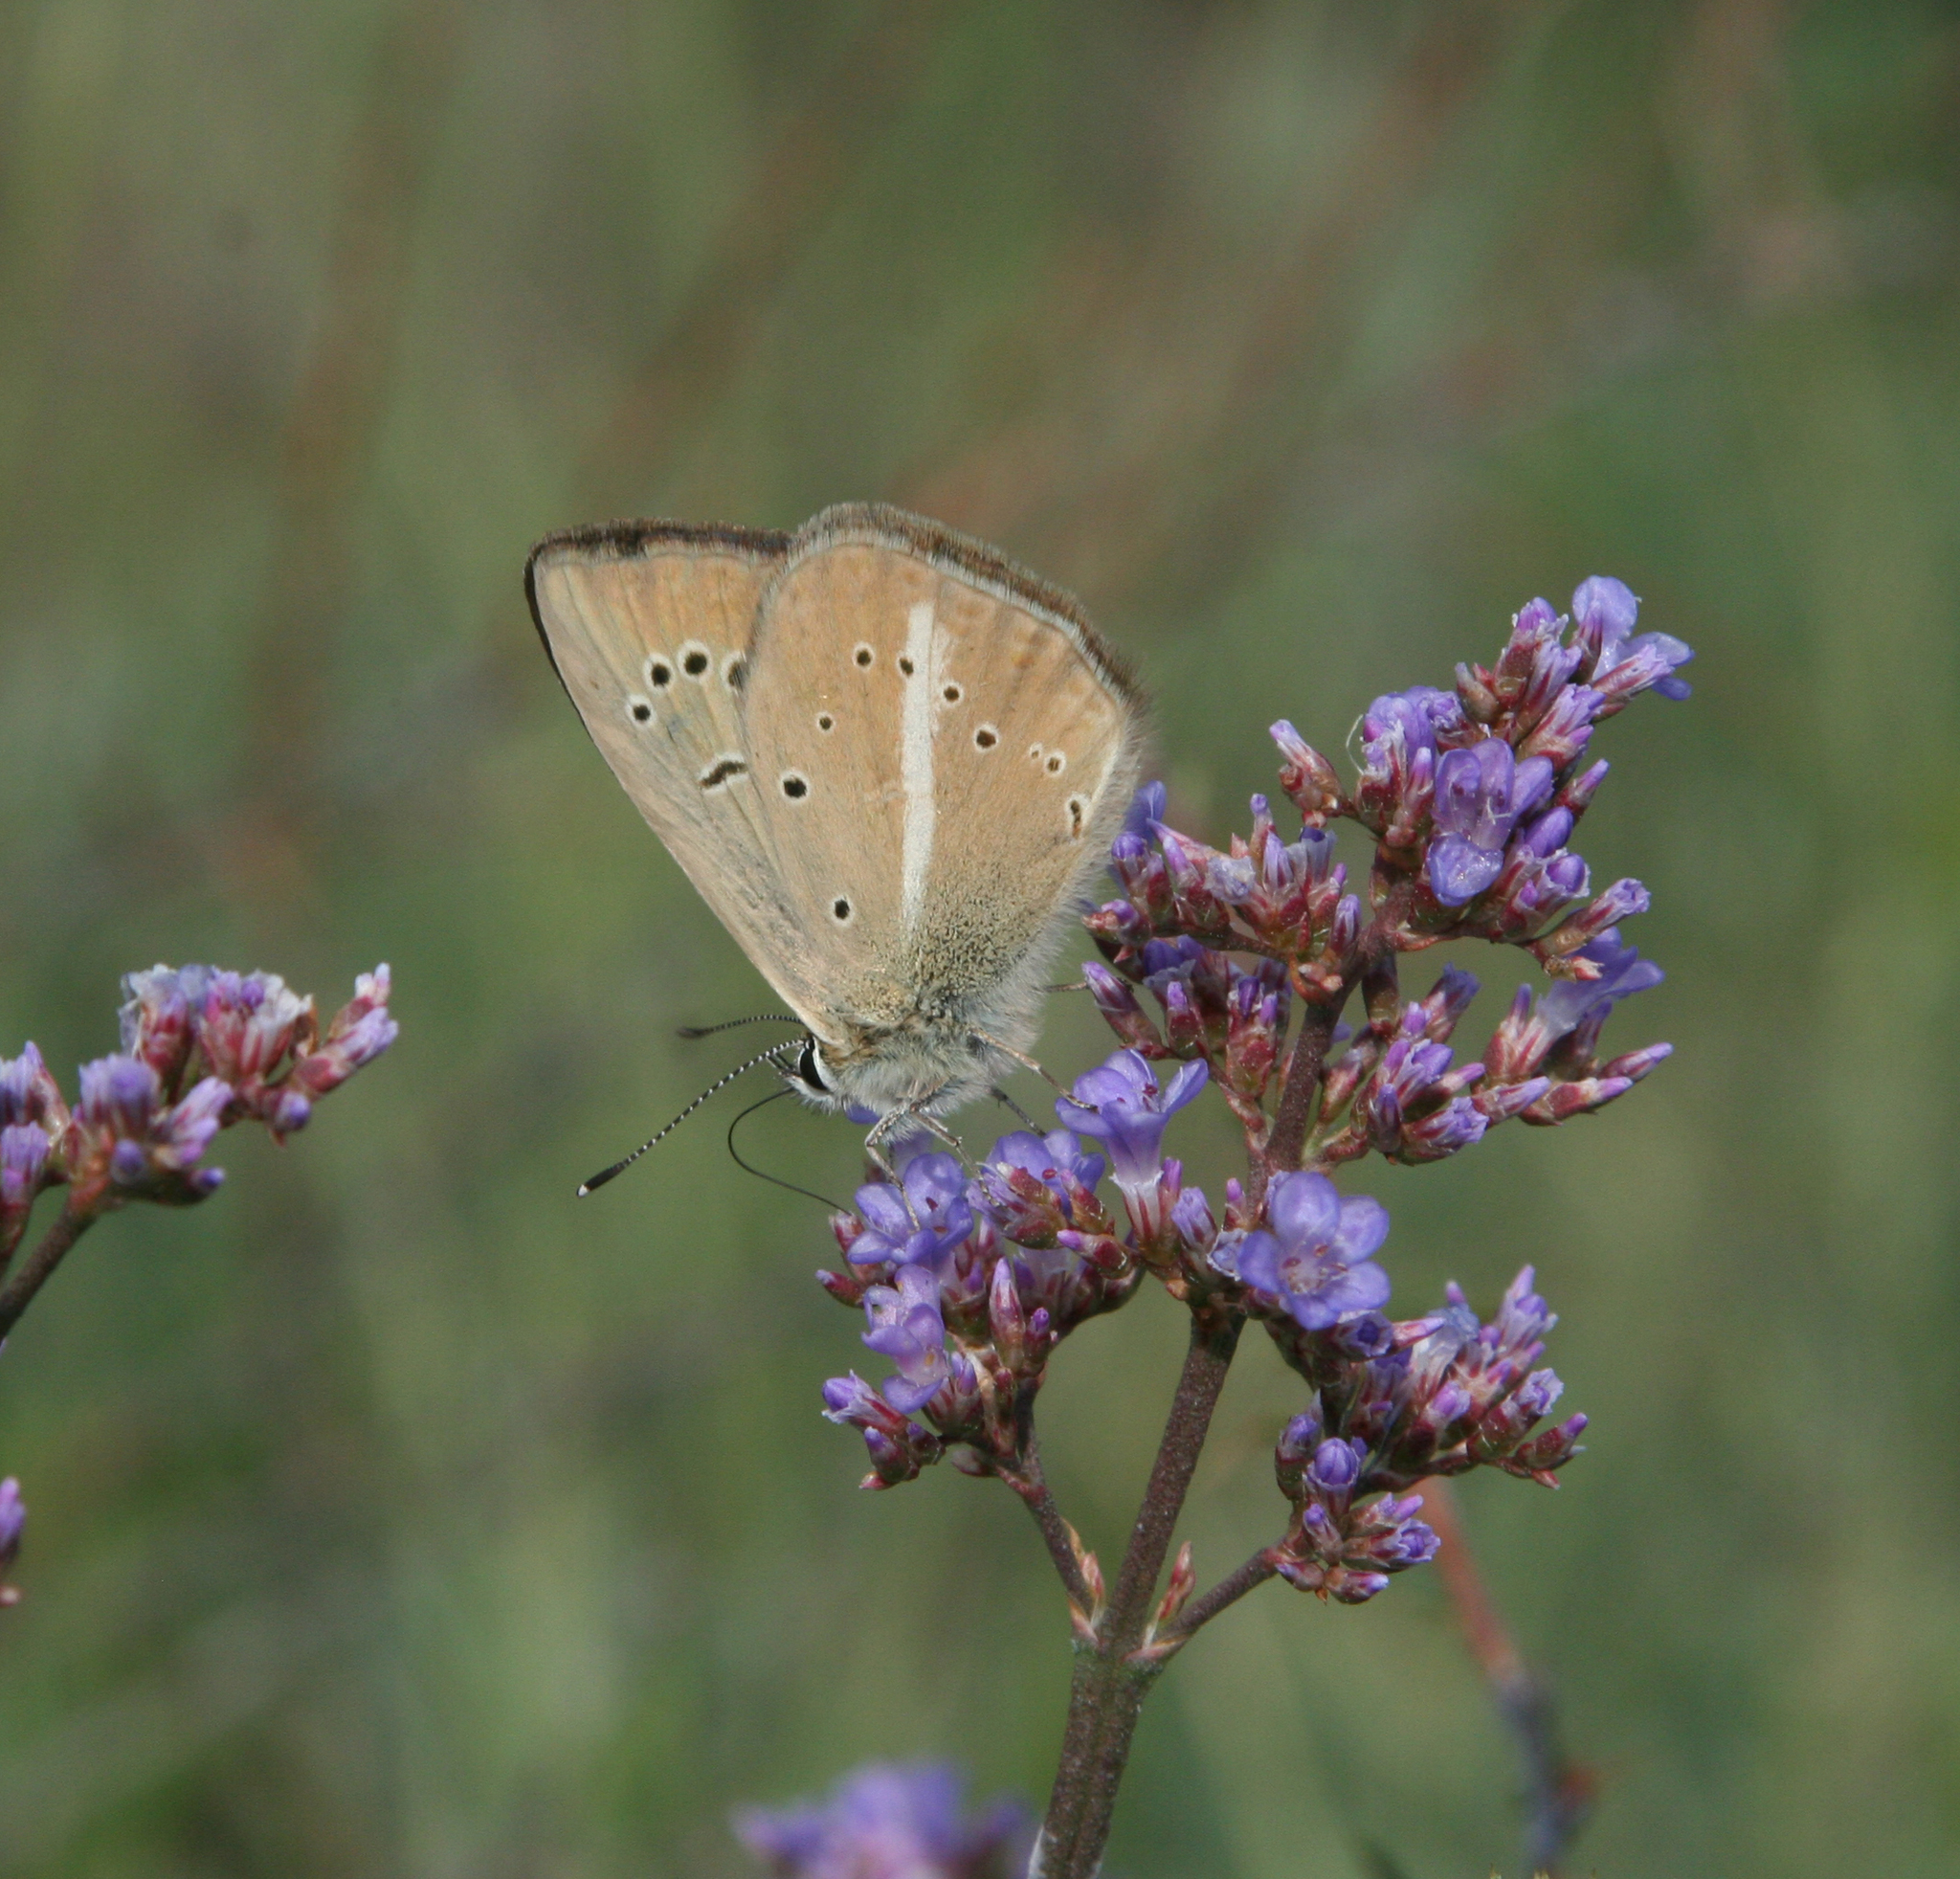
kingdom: Animalia
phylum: Arthropoda
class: Insecta
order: Lepidoptera
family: Lycaenidae
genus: Polyommatus
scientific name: Polyommatus ripartii
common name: Ripart's anomalous blue
